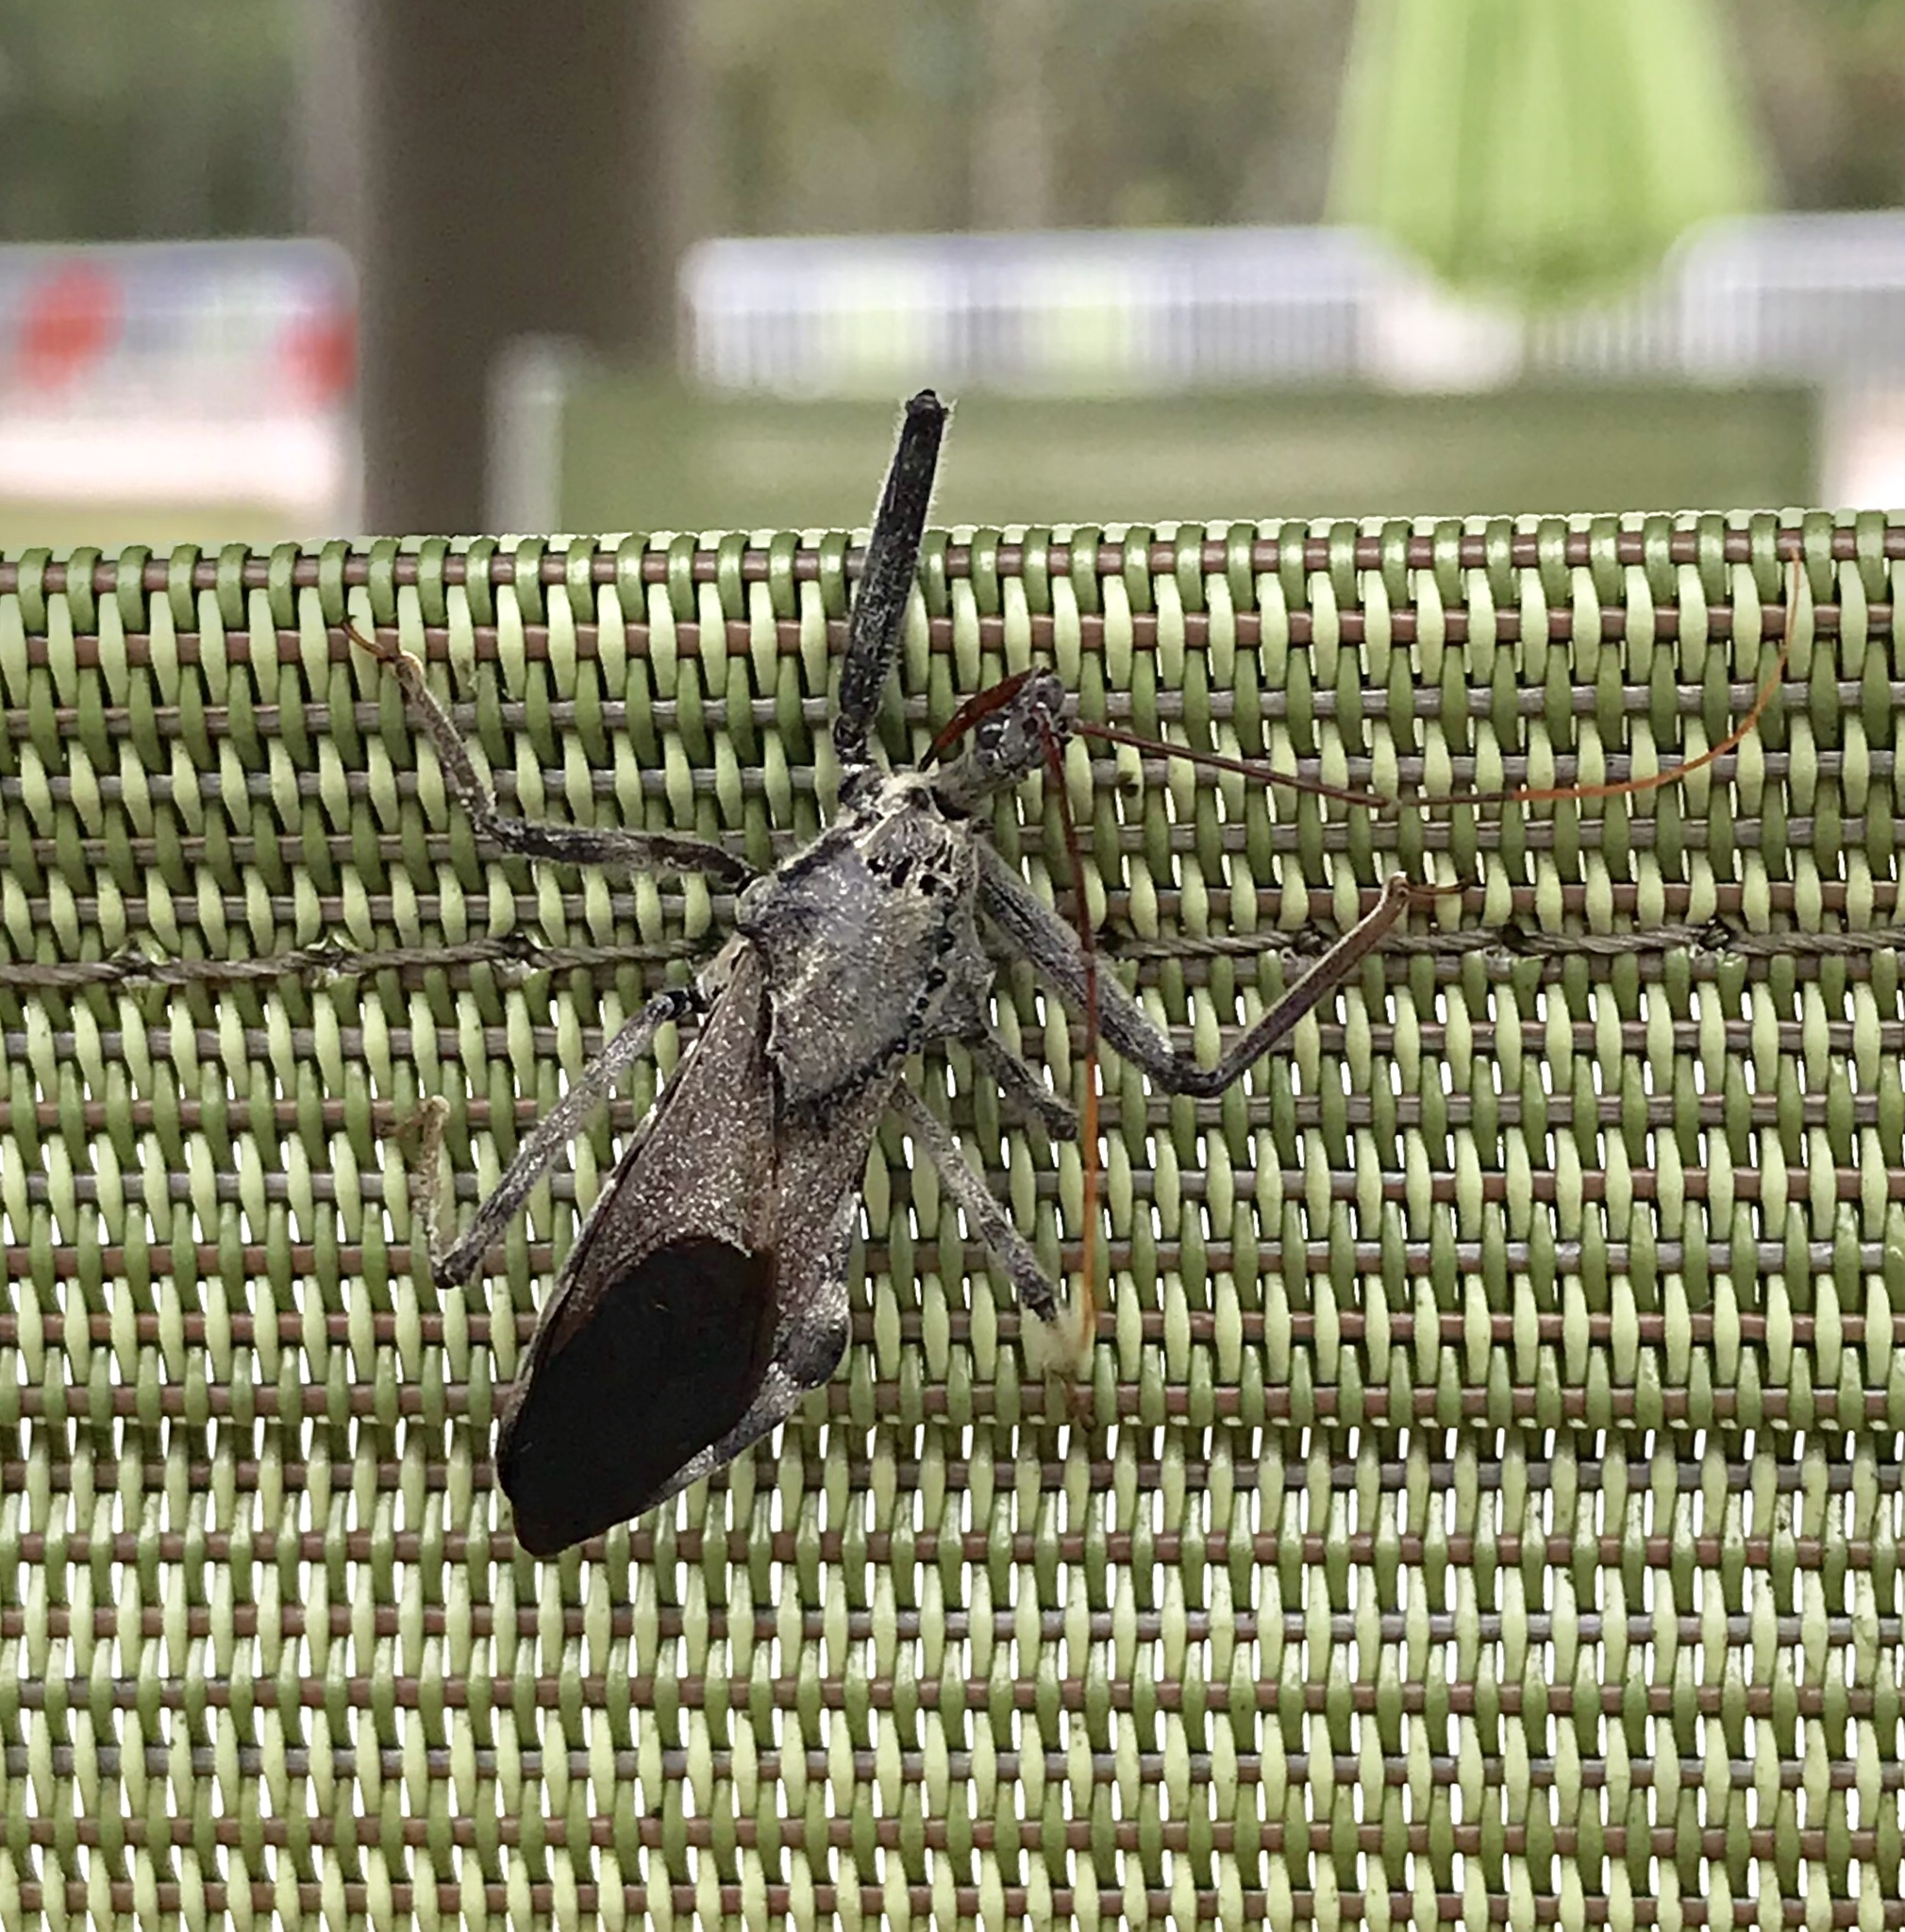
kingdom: Animalia
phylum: Arthropoda
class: Insecta
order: Hemiptera
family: Reduviidae
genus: Arilus
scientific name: Arilus cristatus
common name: North american wheel bug
